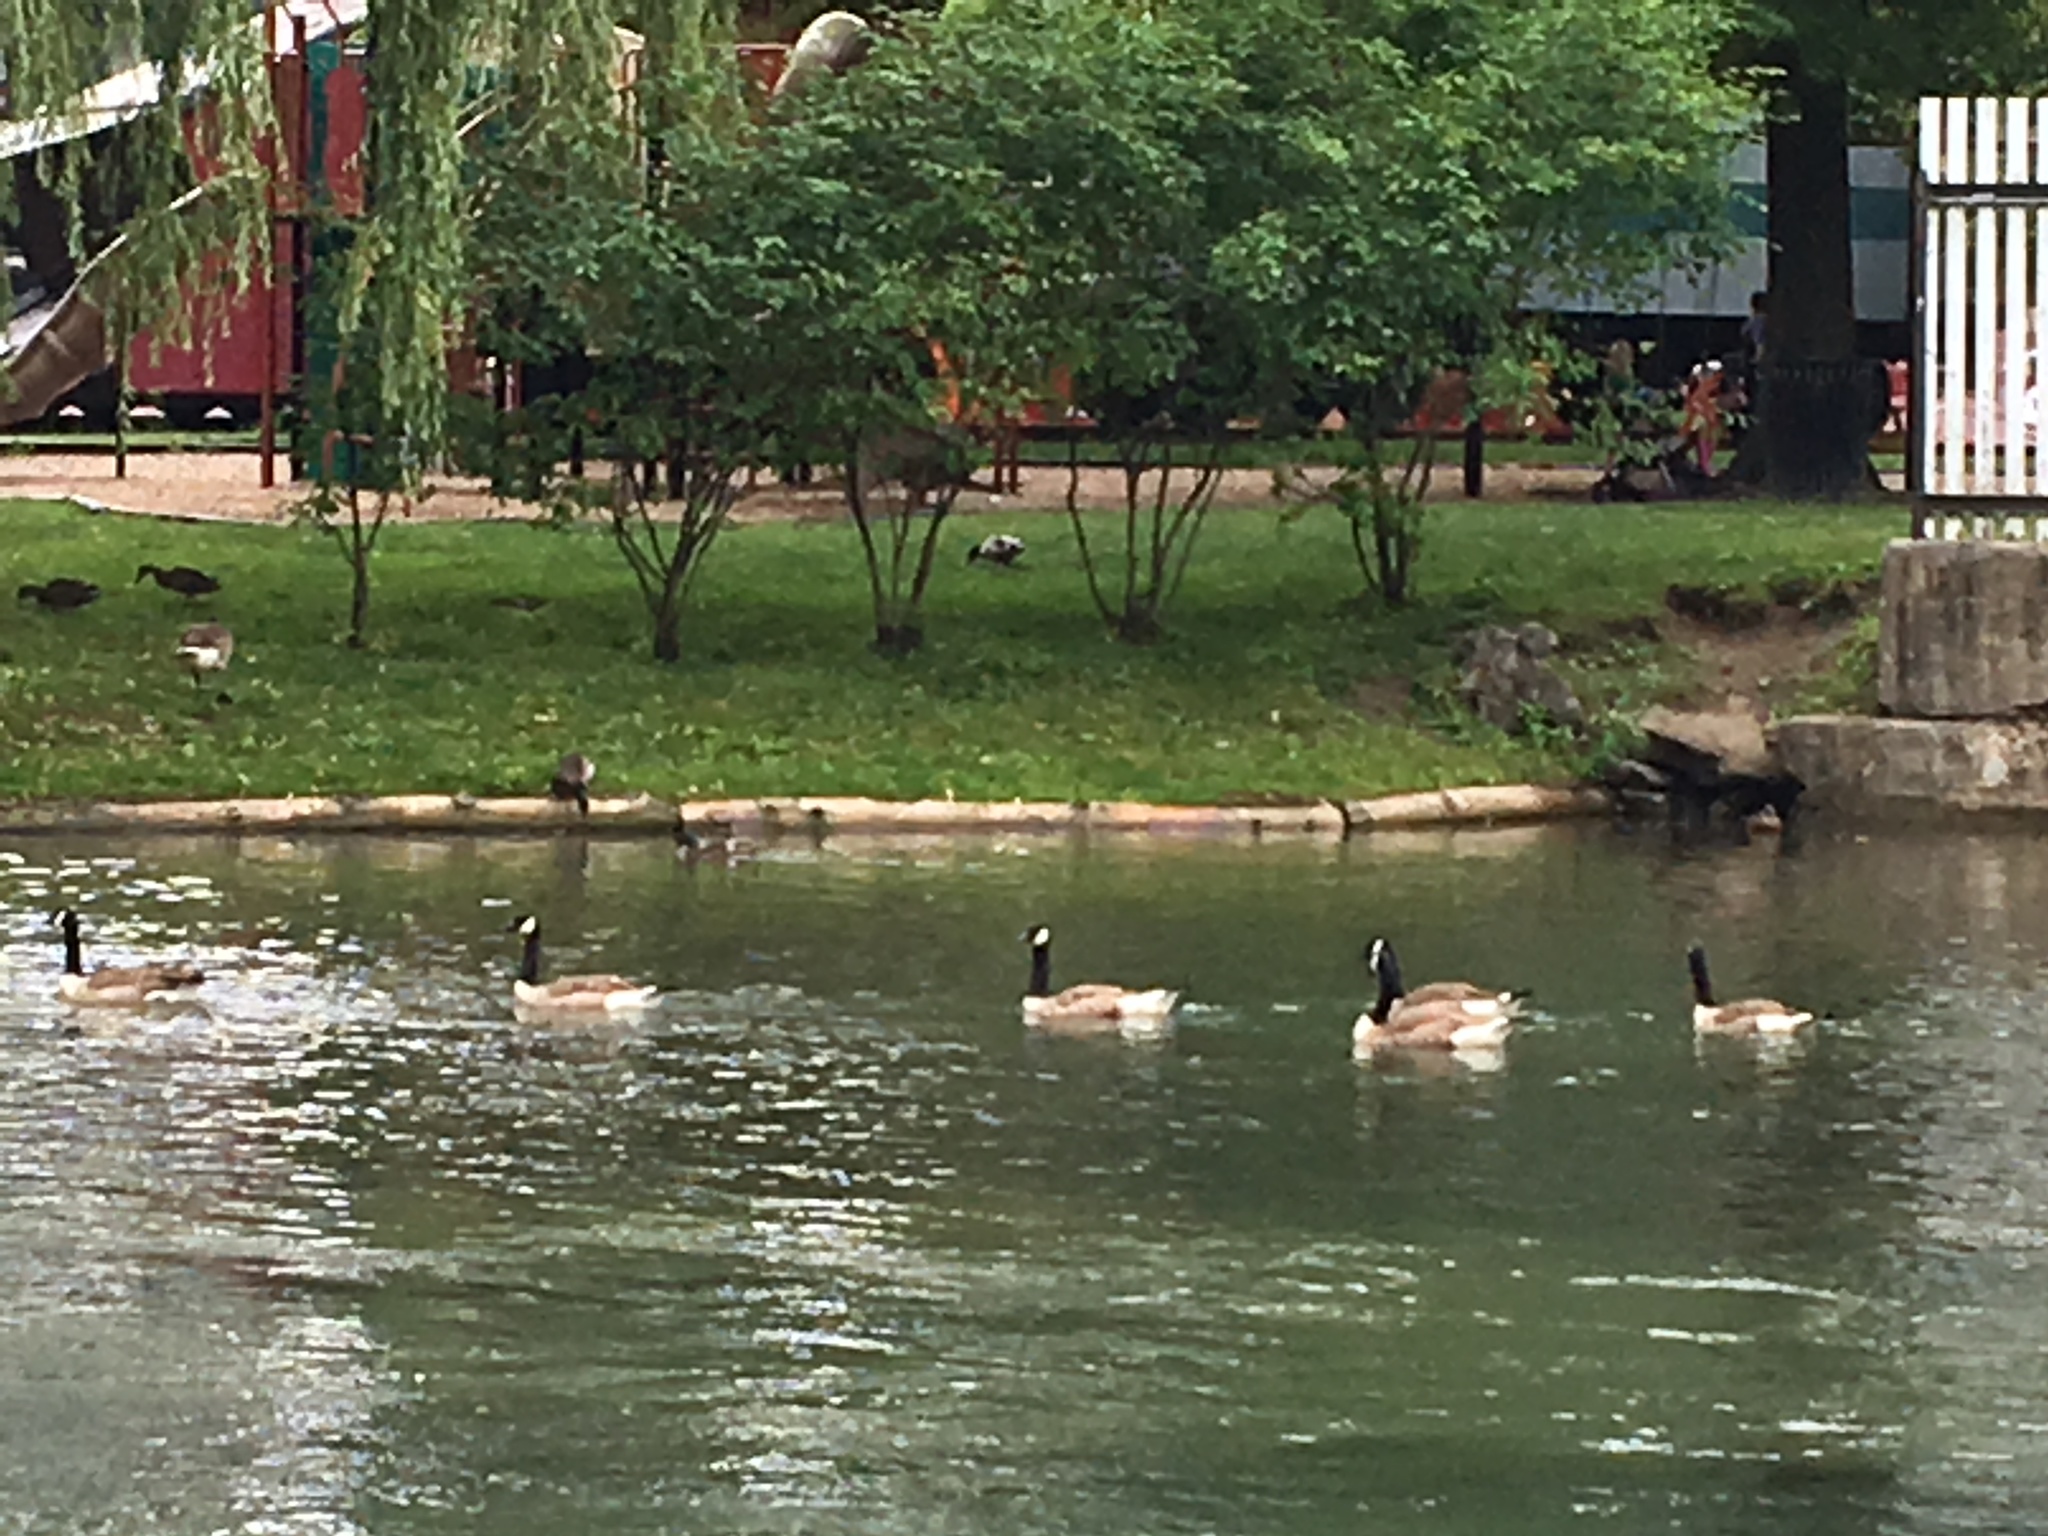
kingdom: Animalia
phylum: Chordata
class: Aves
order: Anseriformes
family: Anatidae
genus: Branta
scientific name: Branta canadensis
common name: Canada goose
